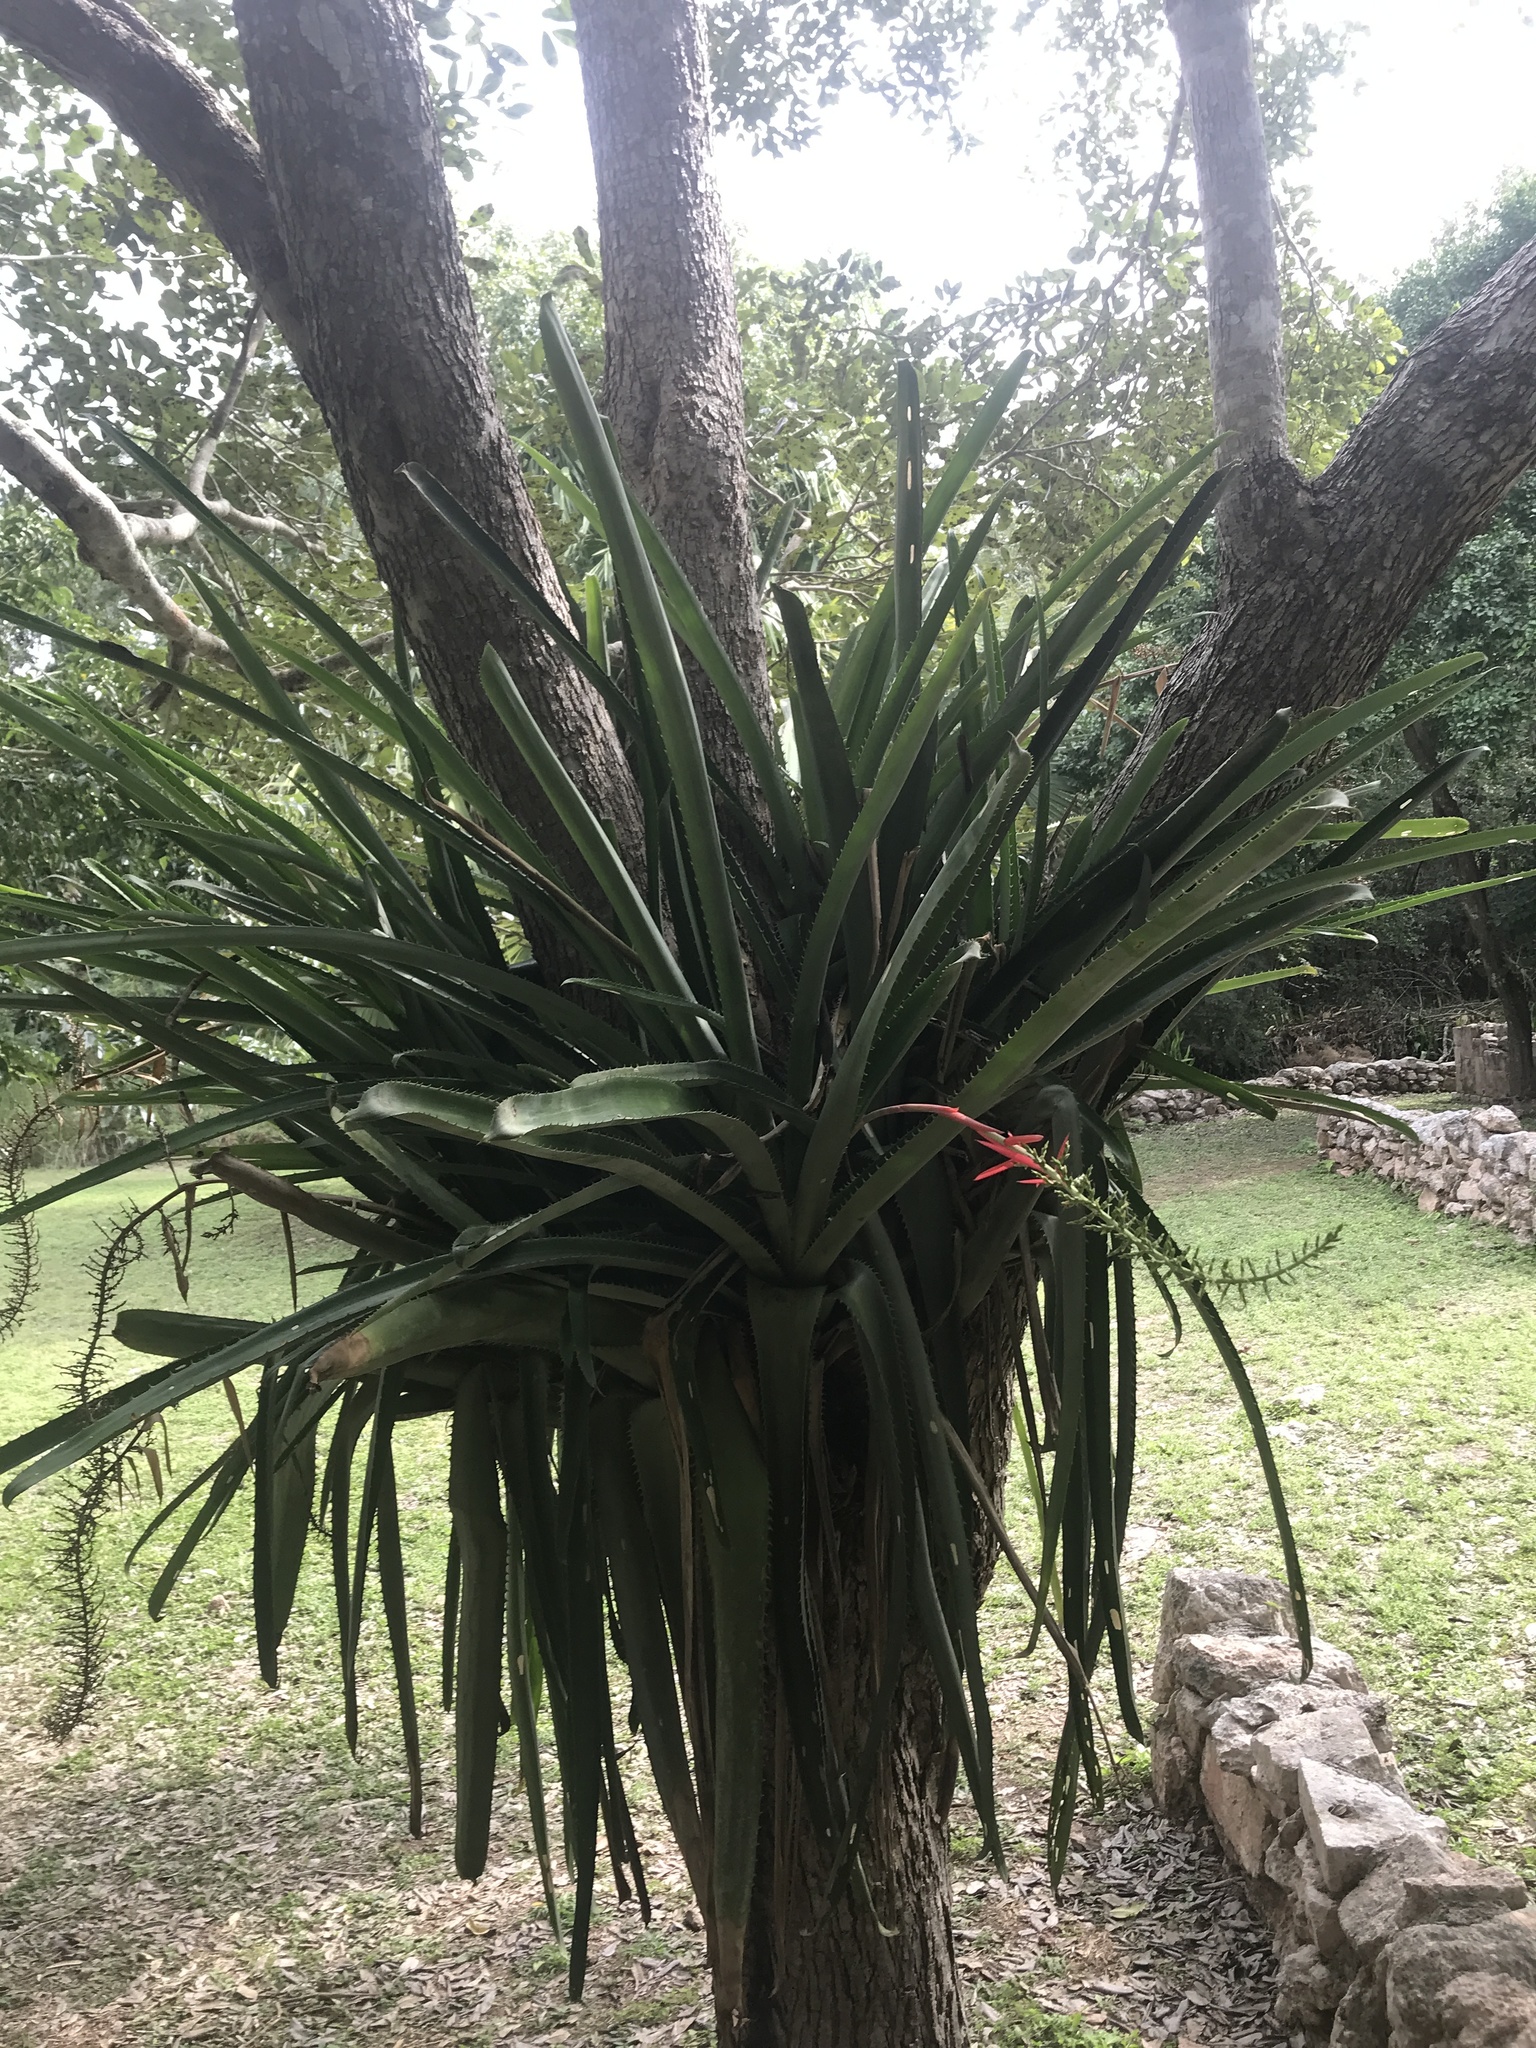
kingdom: Plantae
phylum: Tracheophyta
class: Liliopsida
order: Poales
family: Bromeliaceae
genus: Aechmea
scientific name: Aechmea bracteata
